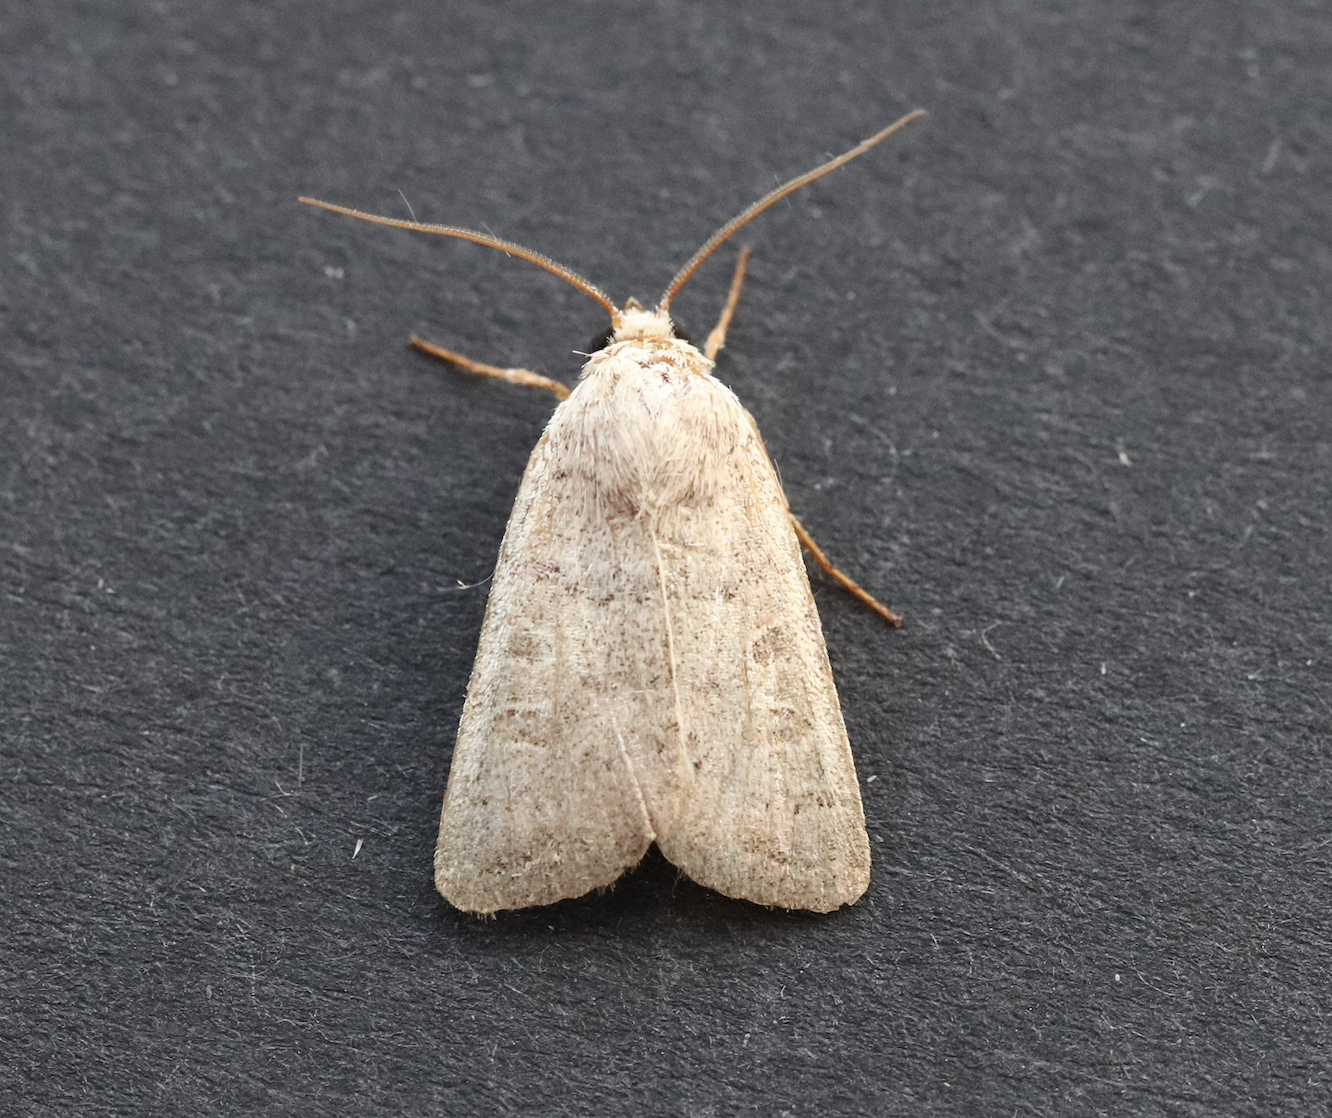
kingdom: Animalia
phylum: Arthropoda
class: Insecta
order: Lepidoptera
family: Noctuidae
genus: Hoplodrina
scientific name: Hoplodrina ambigua
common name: Vine's rustic
